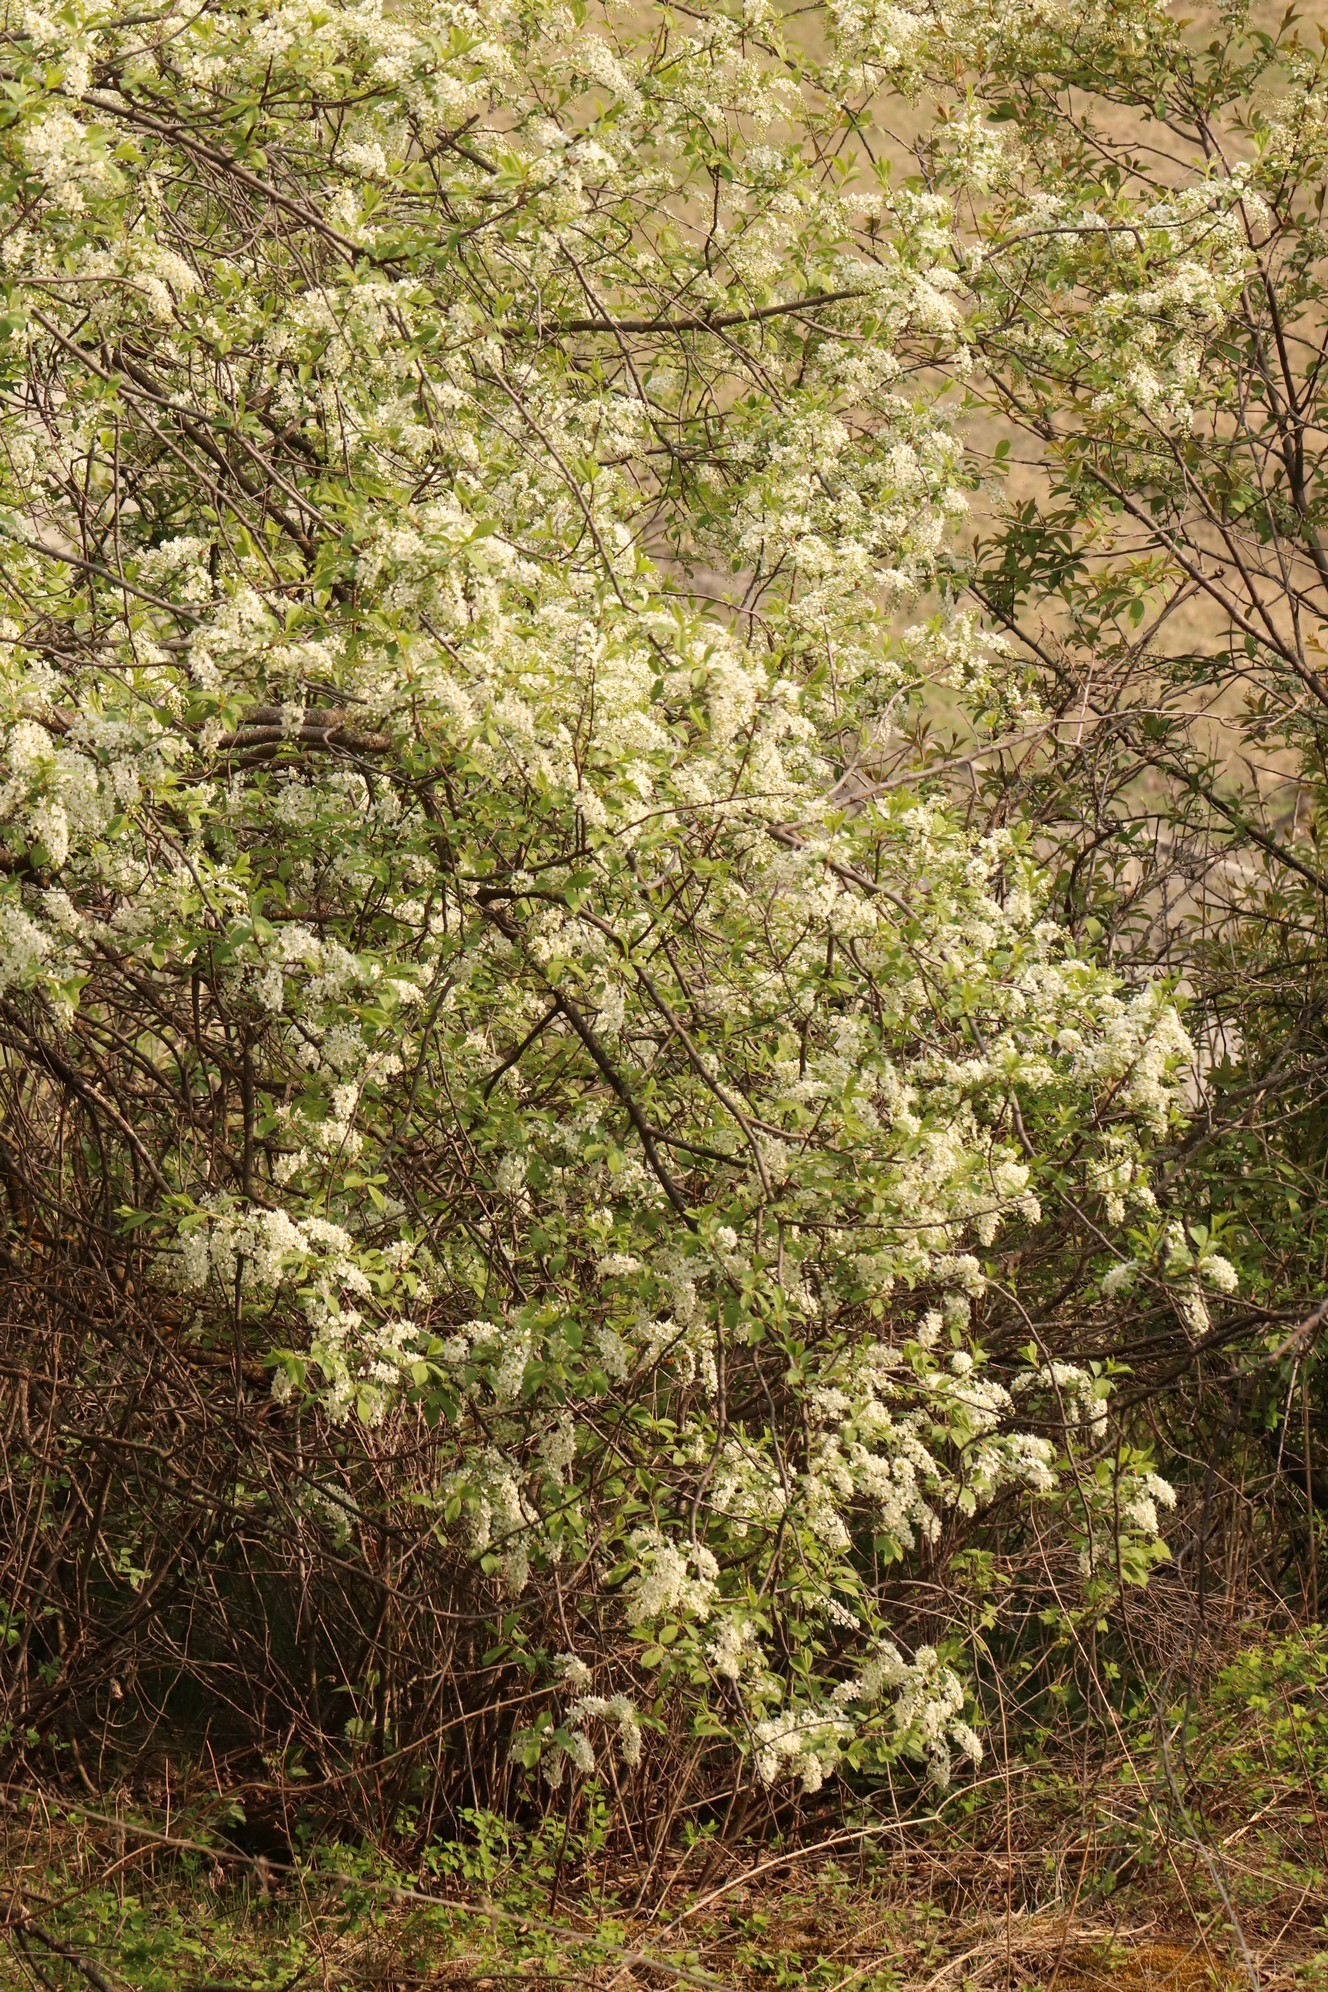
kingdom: Plantae
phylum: Tracheophyta
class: Magnoliopsida
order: Rosales
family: Rosaceae
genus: Prunus
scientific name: Prunus padus
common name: Bird cherry
